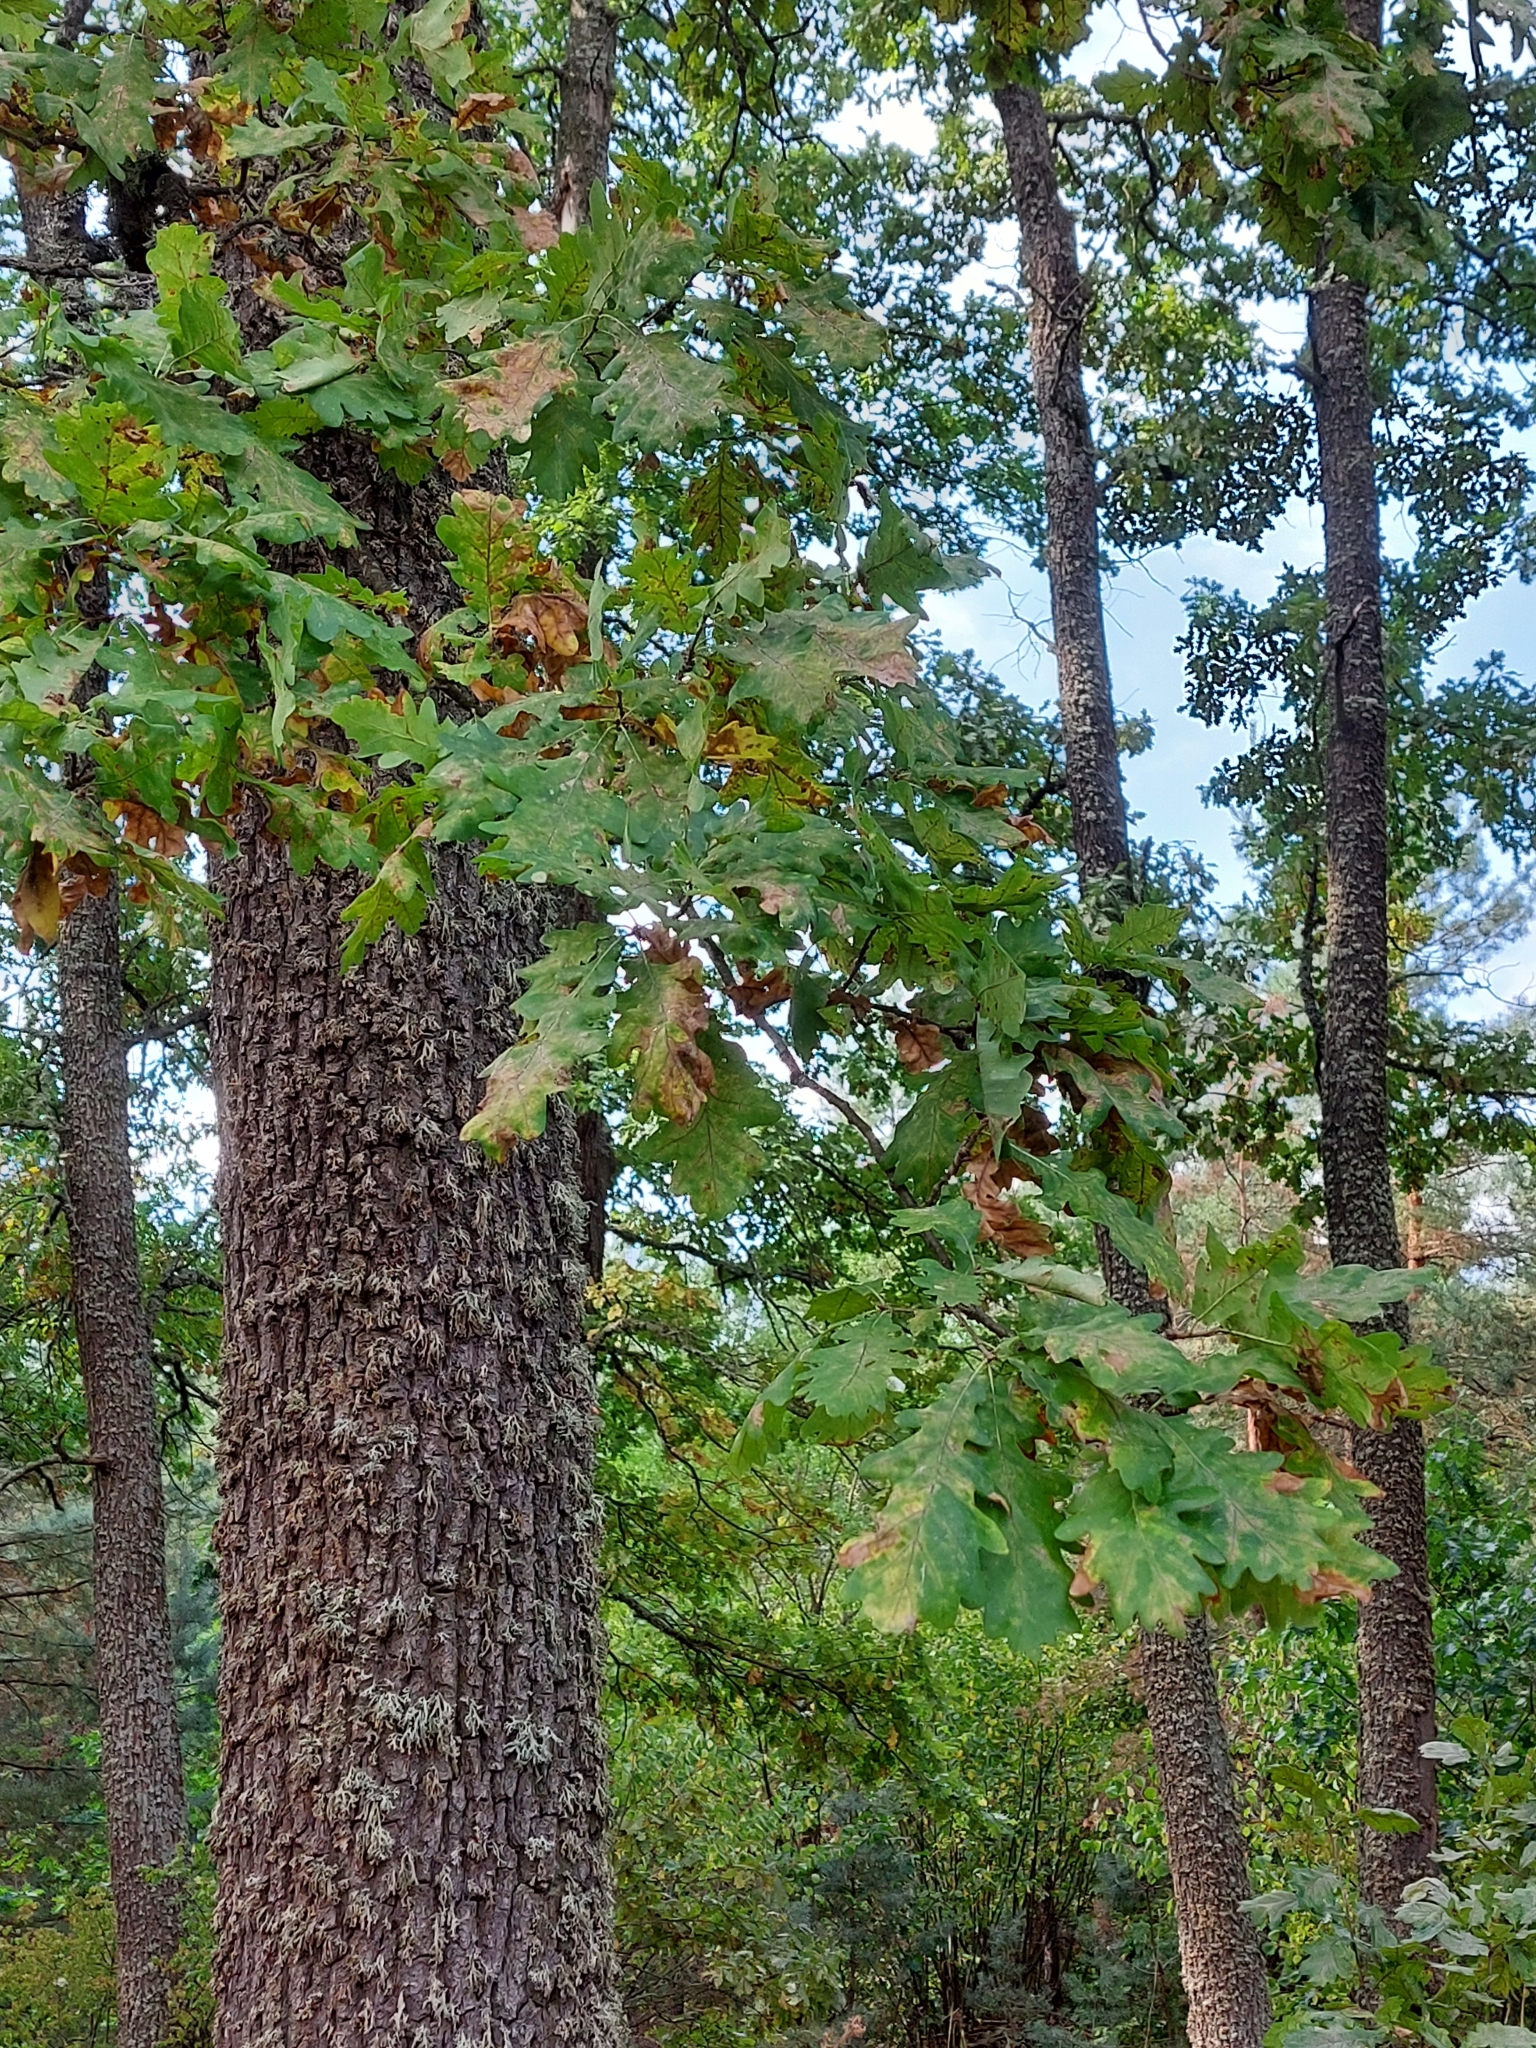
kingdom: Plantae
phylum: Tracheophyta
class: Magnoliopsida
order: Fagales
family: Fagaceae
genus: Quercus
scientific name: Quercus robur
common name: Pedunculate oak
